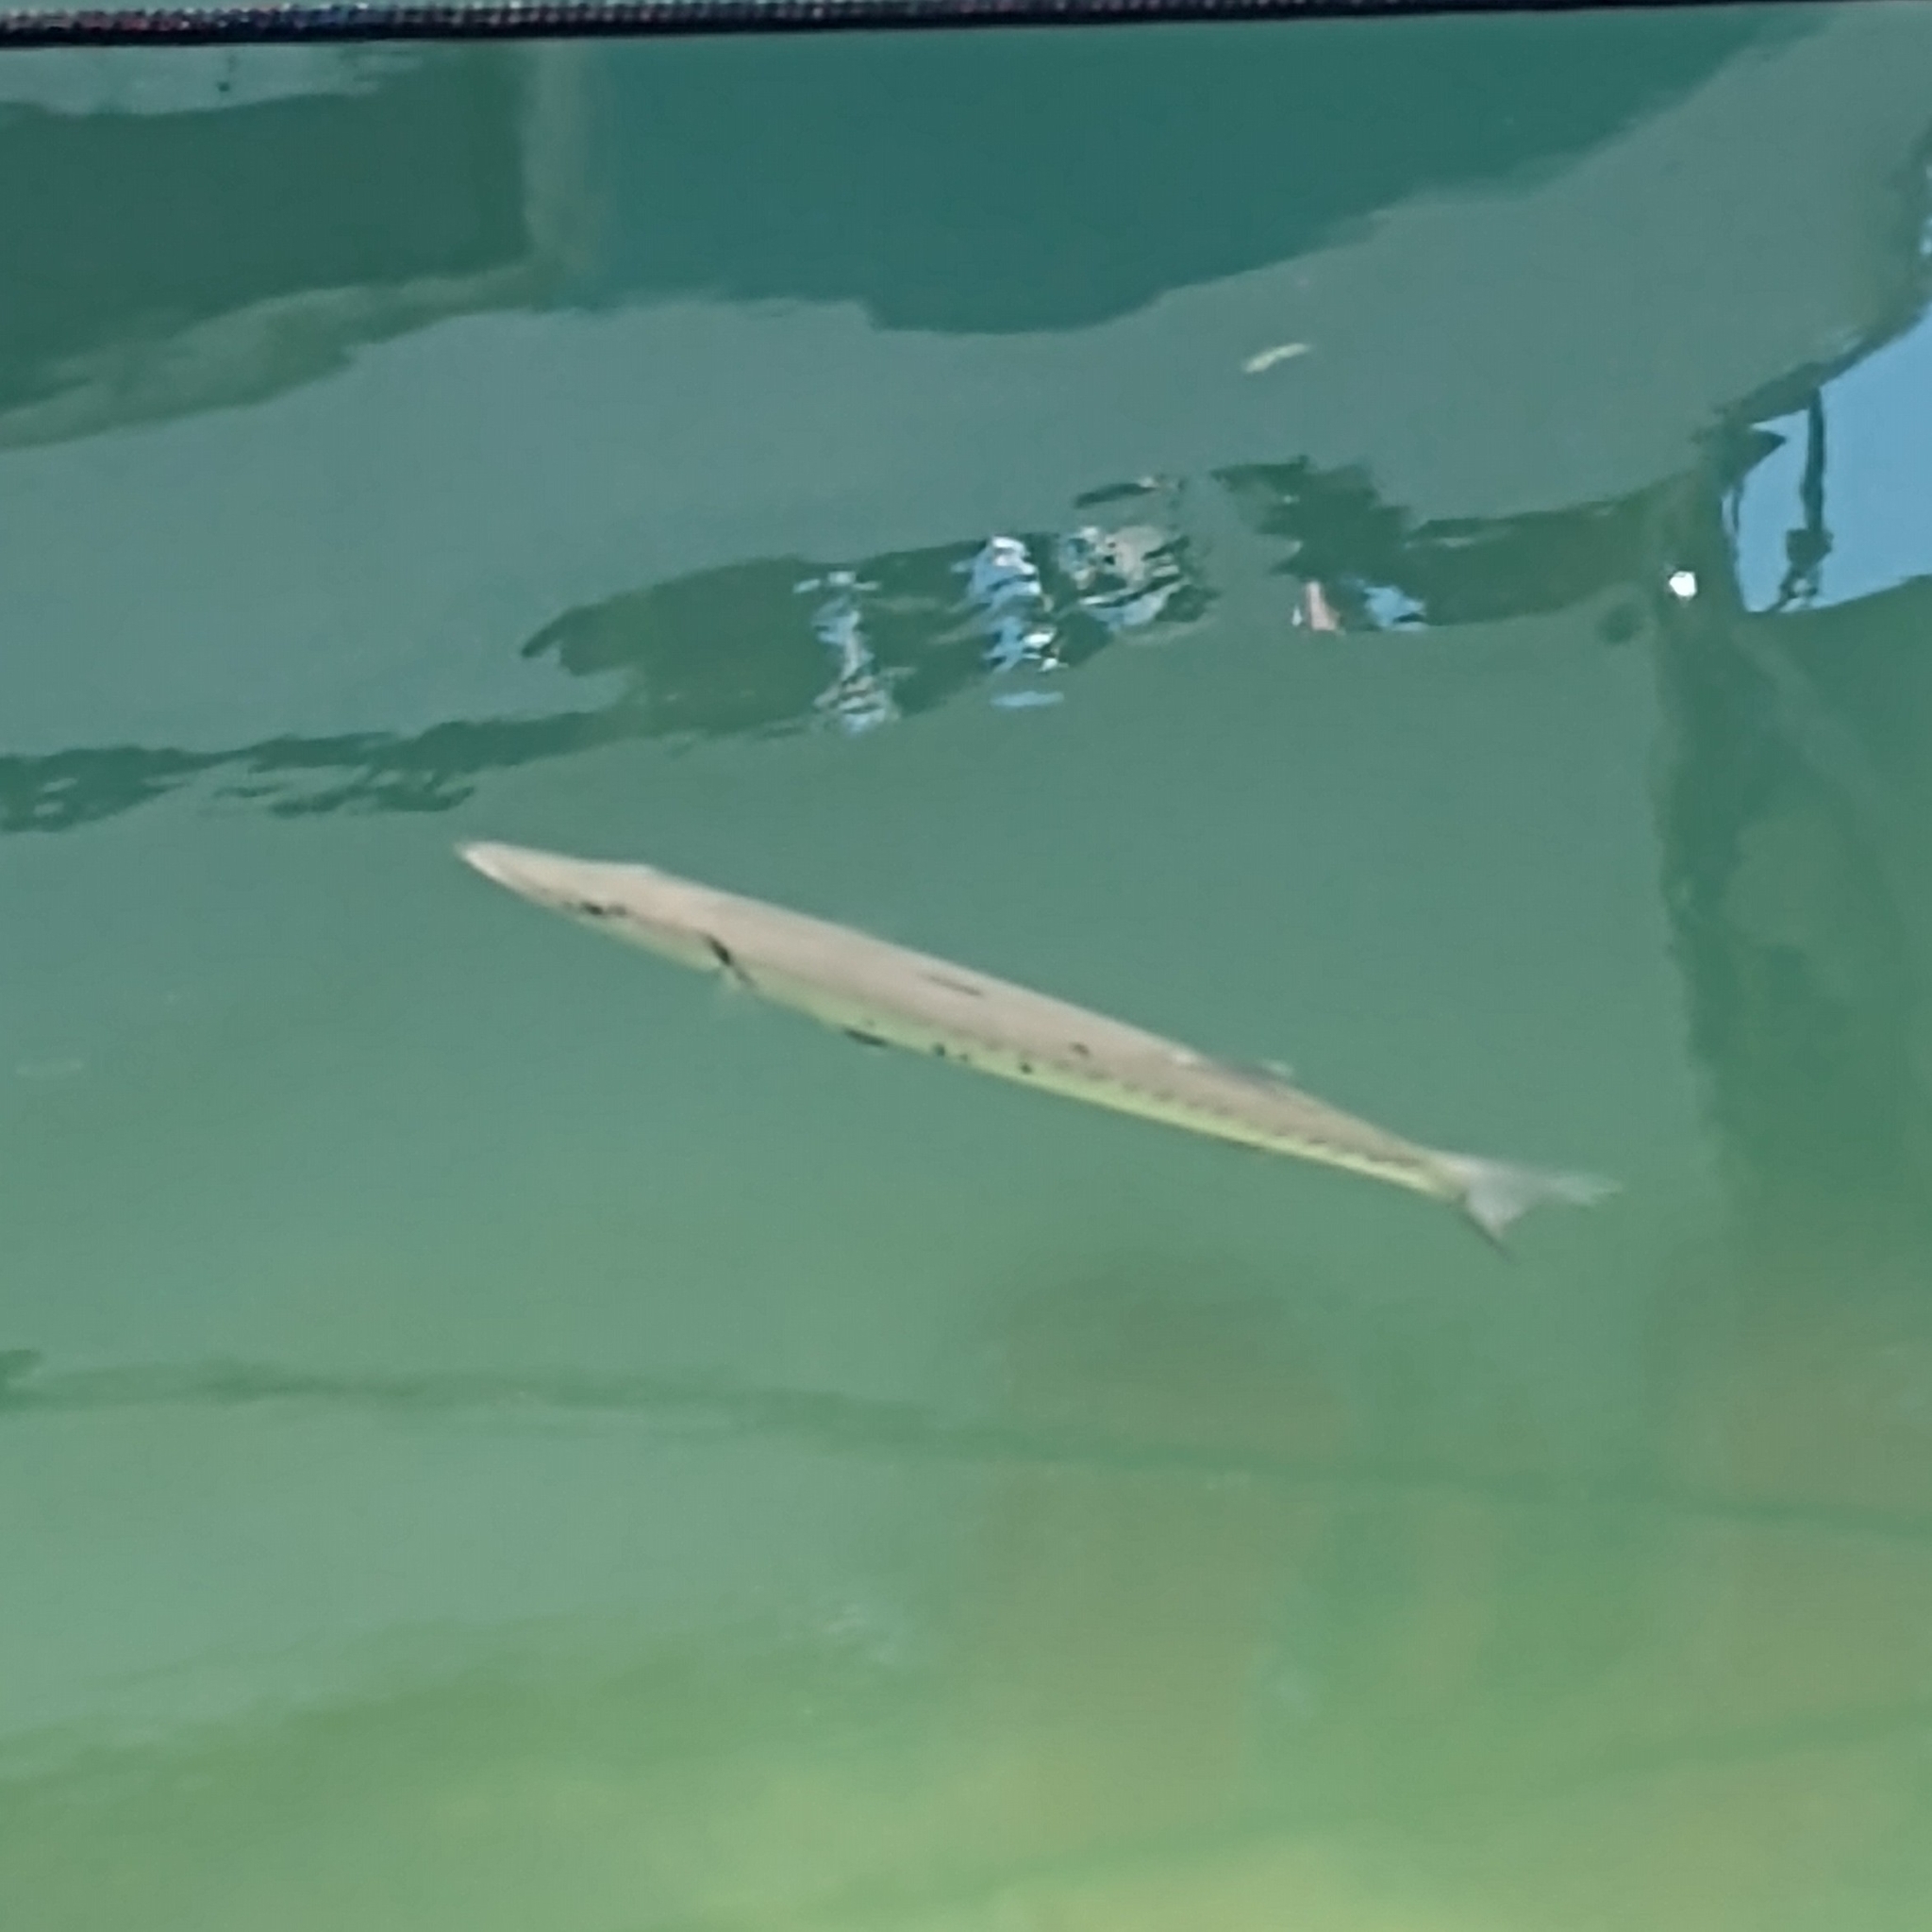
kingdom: Animalia
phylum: Chordata
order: Perciformes
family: Sphyraenidae
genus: Sphyraena
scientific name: Sphyraena barracuda
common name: Great barracuda
